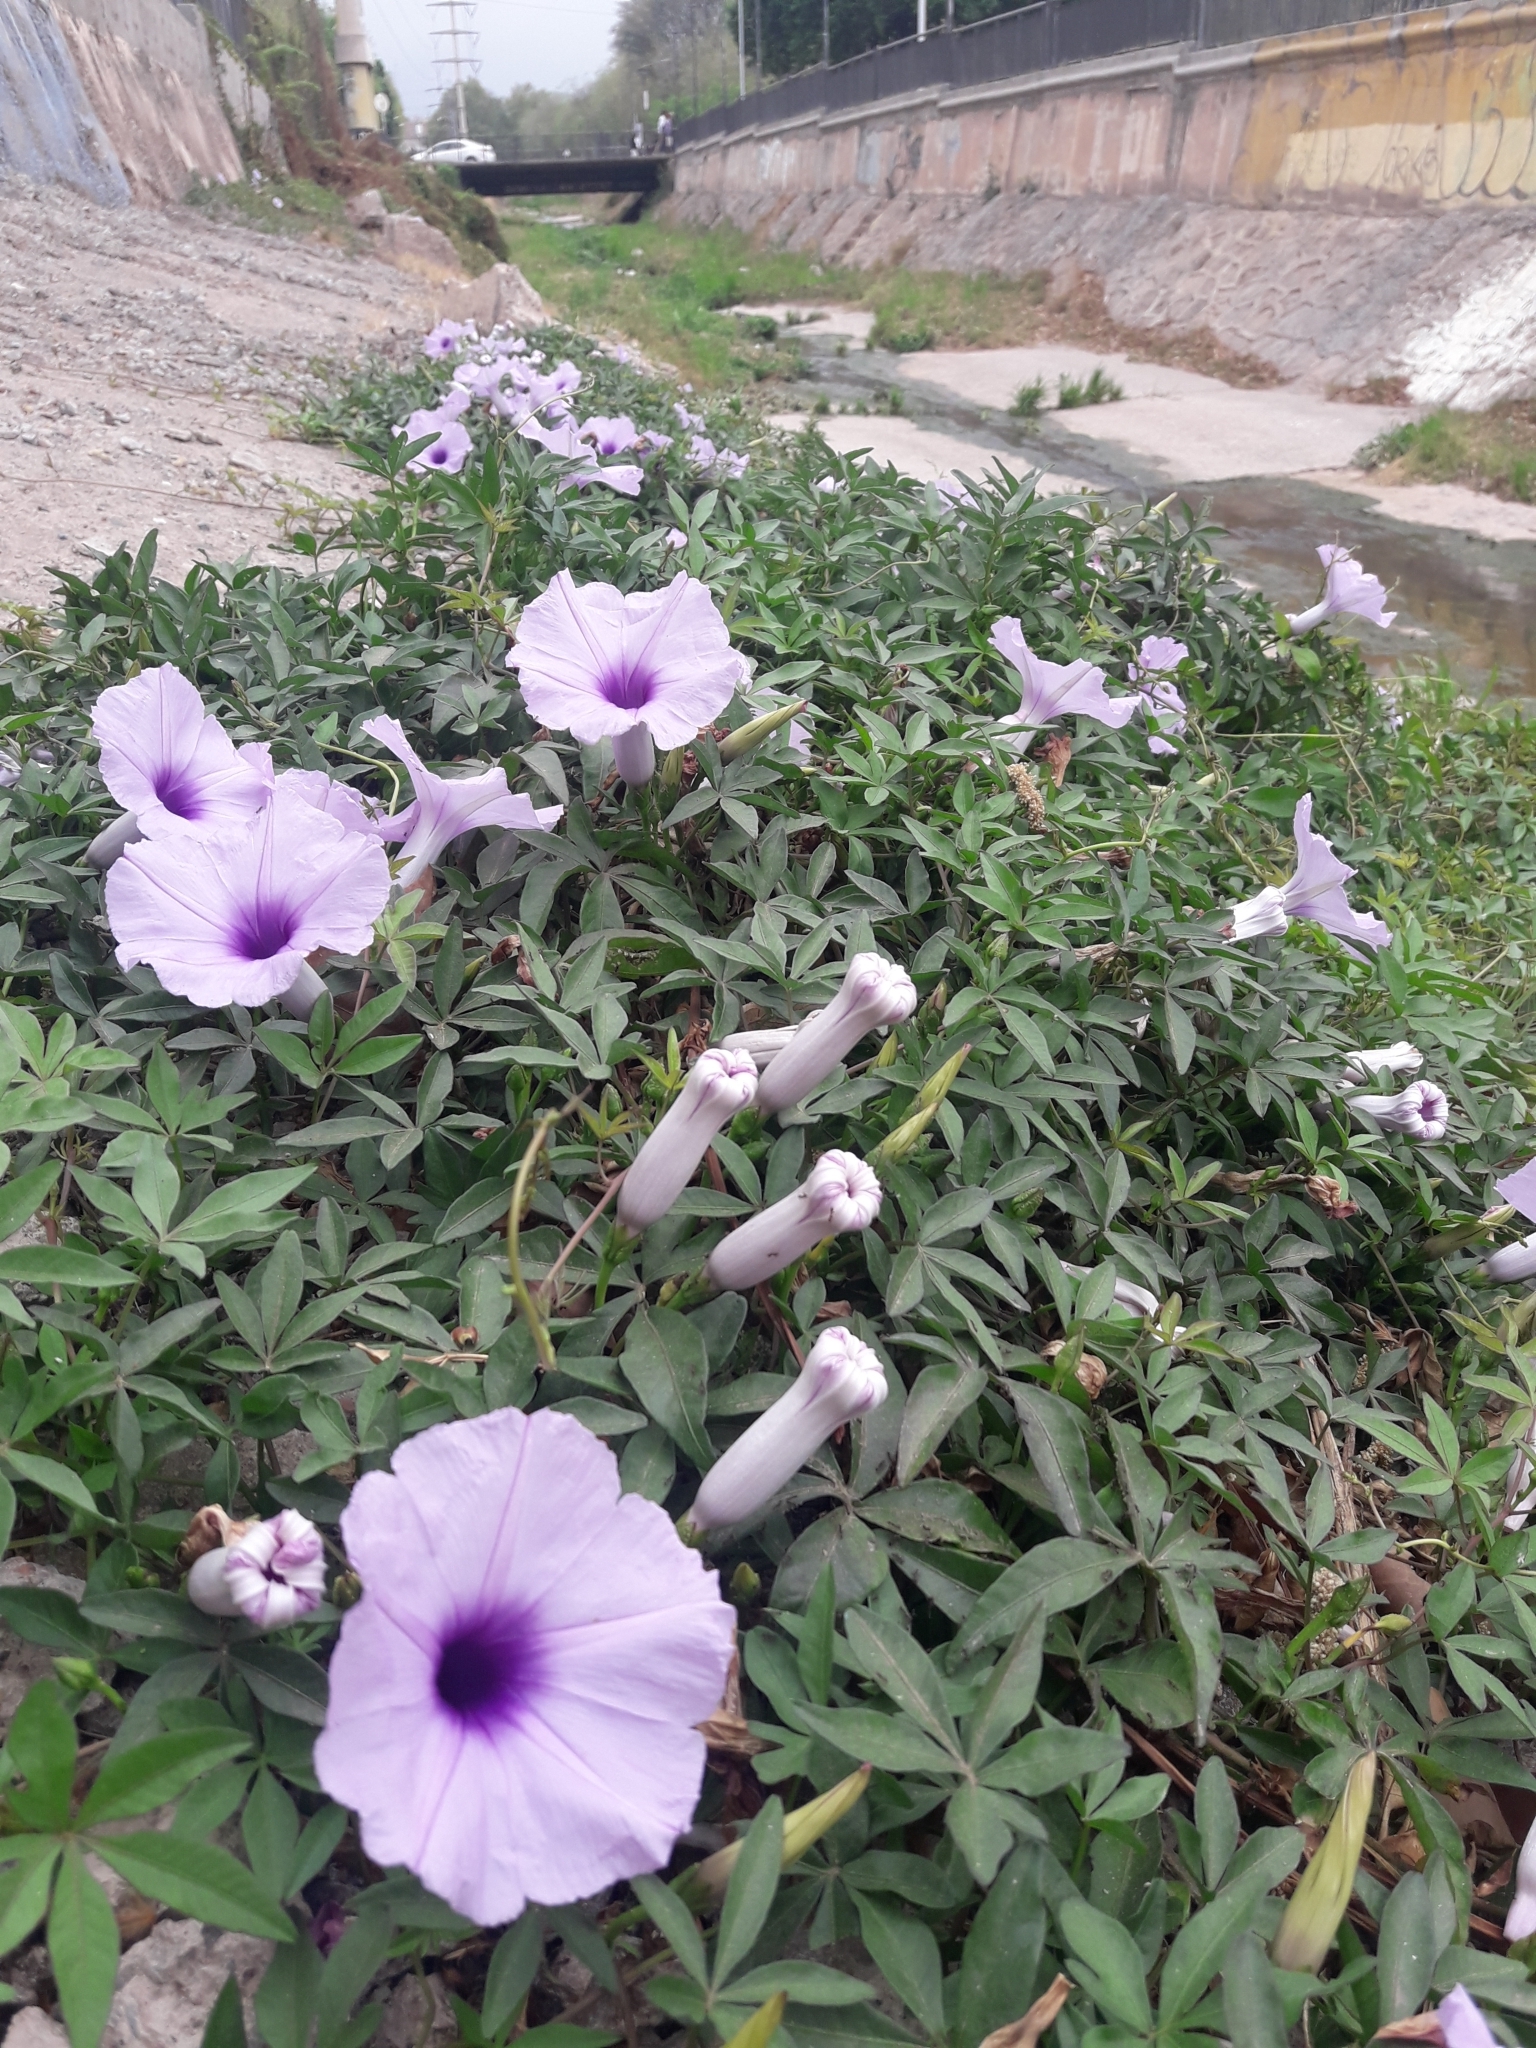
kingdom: Plantae
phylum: Tracheophyta
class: Magnoliopsida
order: Solanales
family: Convolvulaceae
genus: Ipomoea
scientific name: Ipomoea cairica
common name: Mile a minute vine
